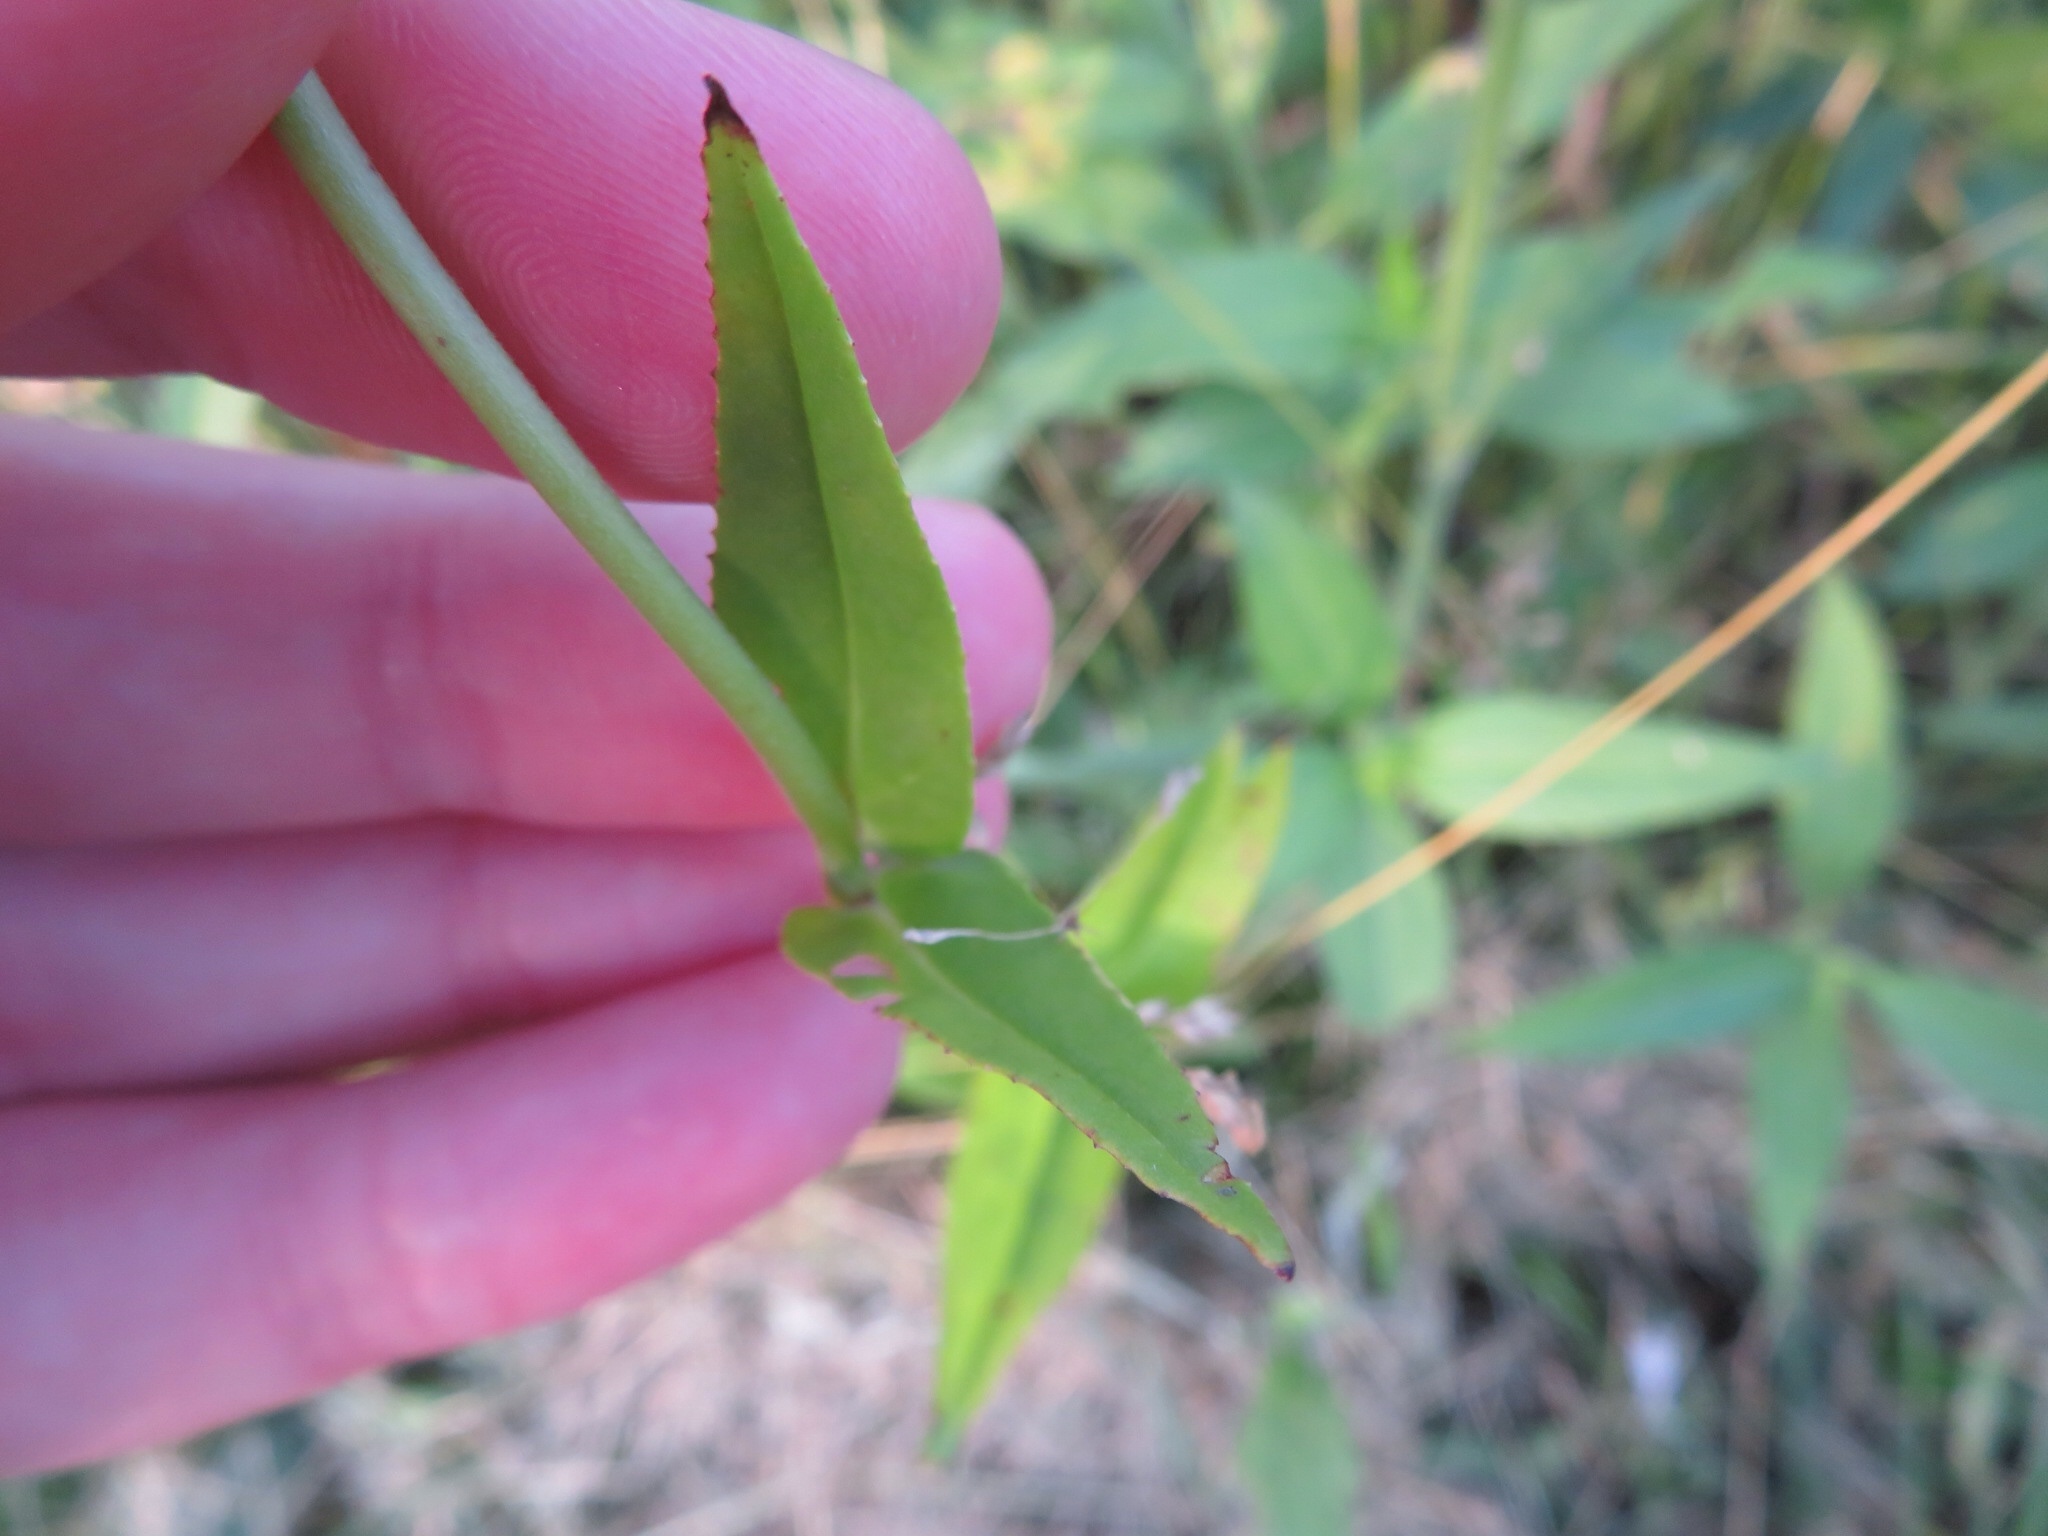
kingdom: Plantae
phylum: Tracheophyta
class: Magnoliopsida
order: Lamiales
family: Plantaginaceae
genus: Penstemon
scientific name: Penstemon digitalis
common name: Foxglove beardtongue
